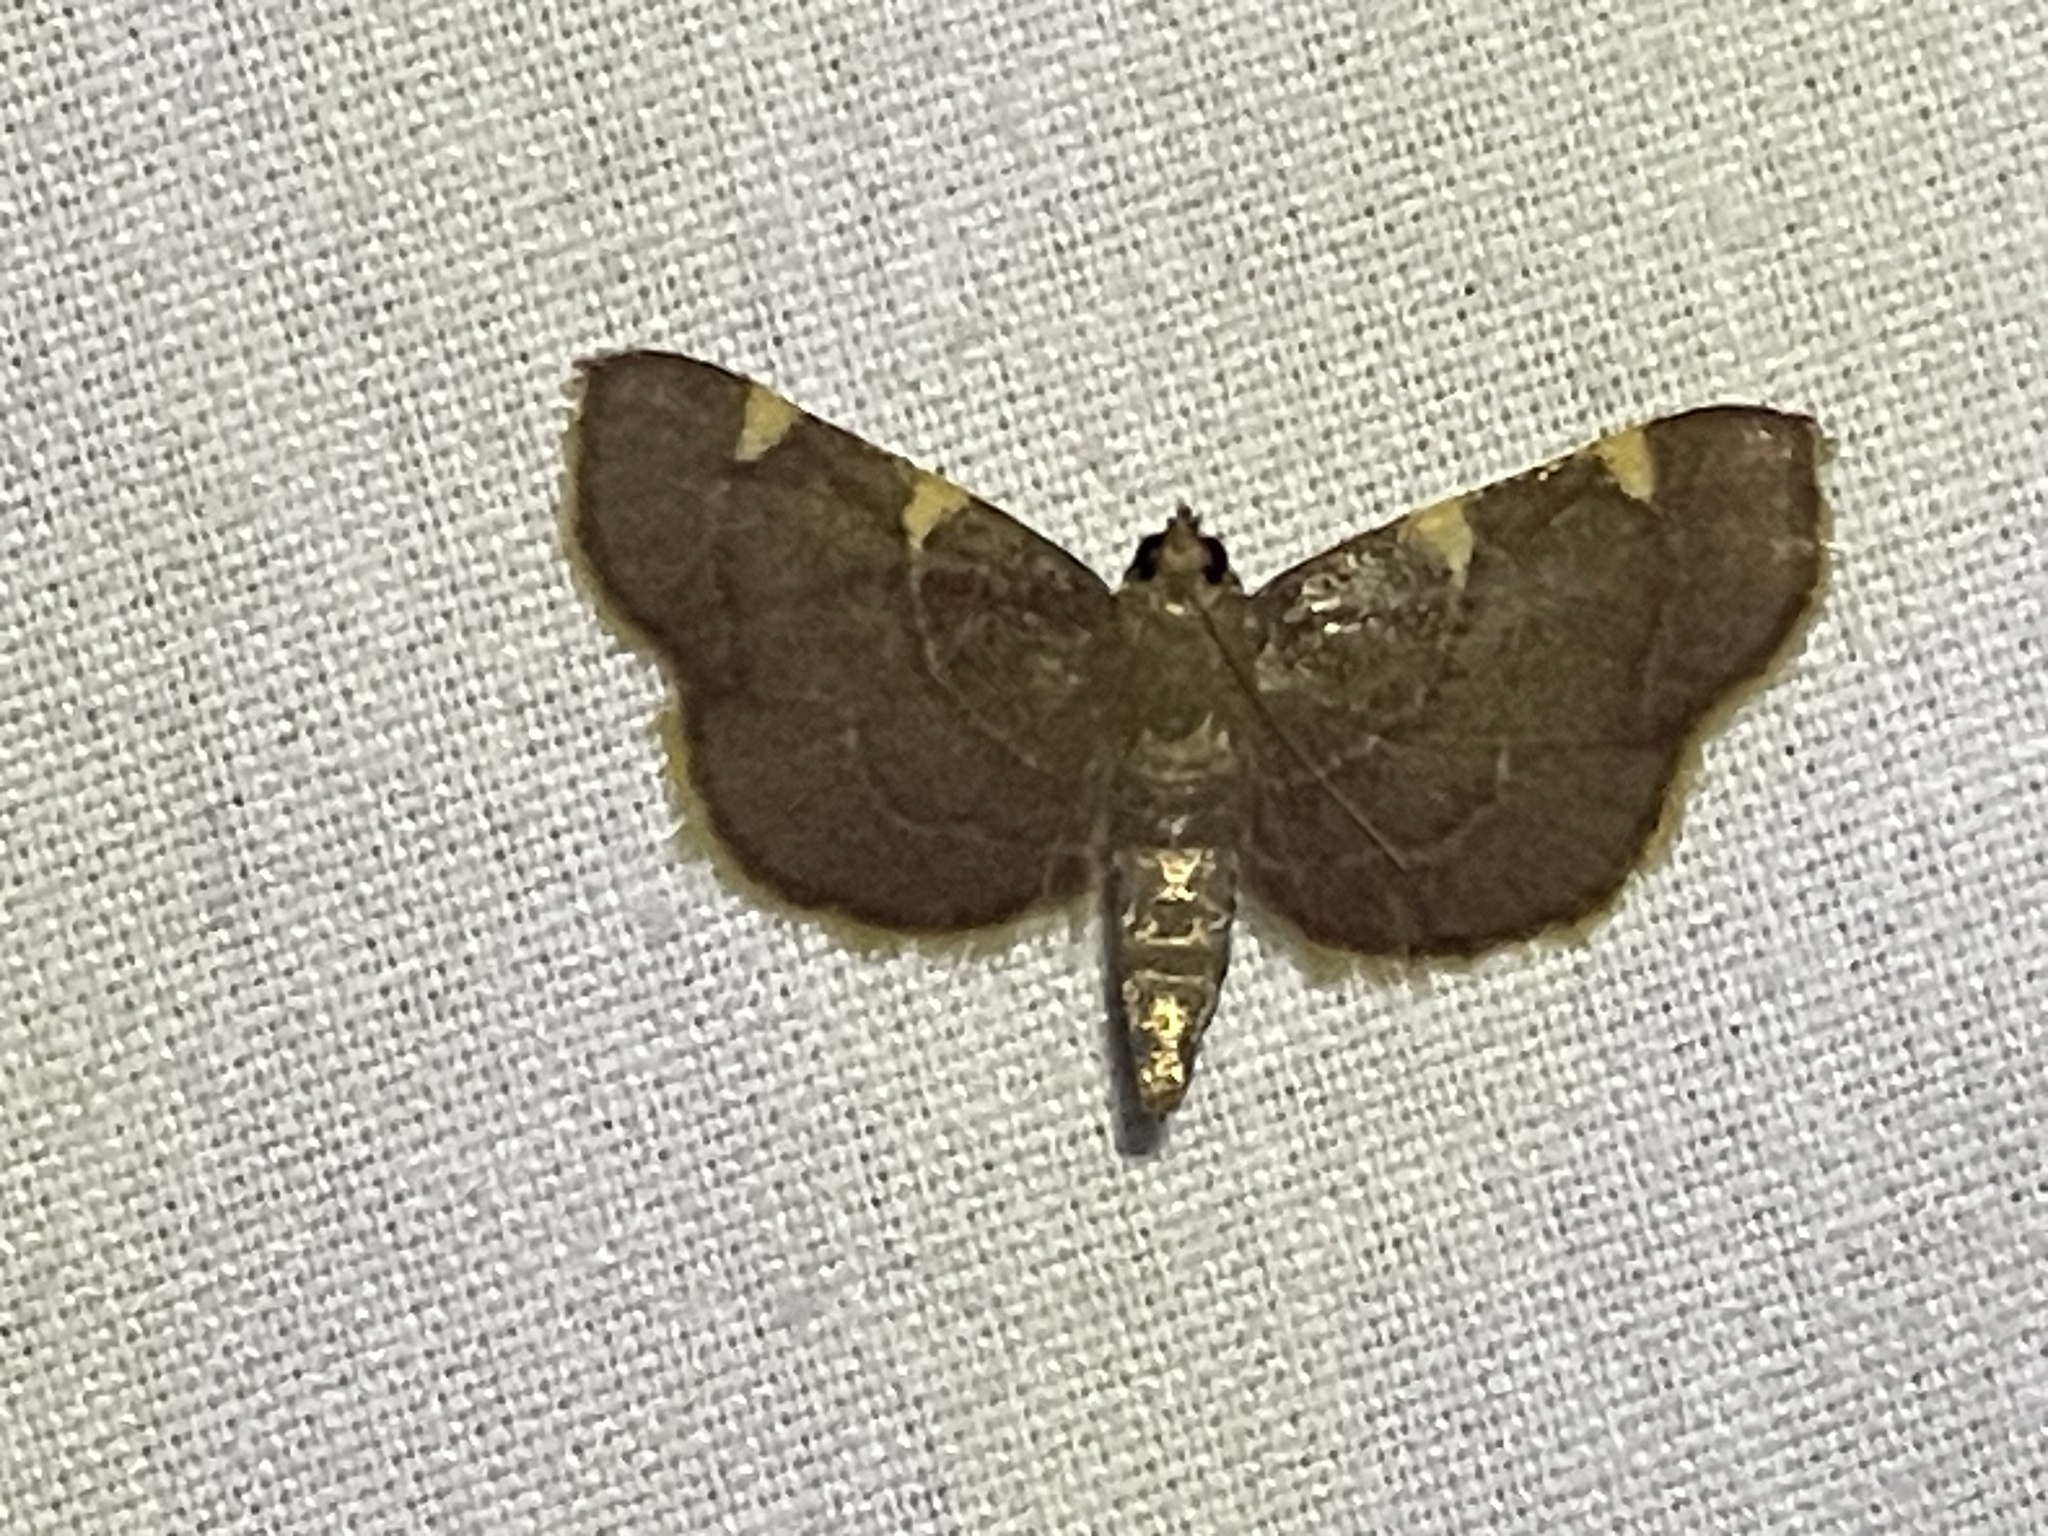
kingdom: Animalia
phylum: Arthropoda
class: Insecta
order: Lepidoptera
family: Pyralidae
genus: Hypsopygia
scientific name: Hypsopygia olinalis
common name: Yellow-fringed dolichomia moth
